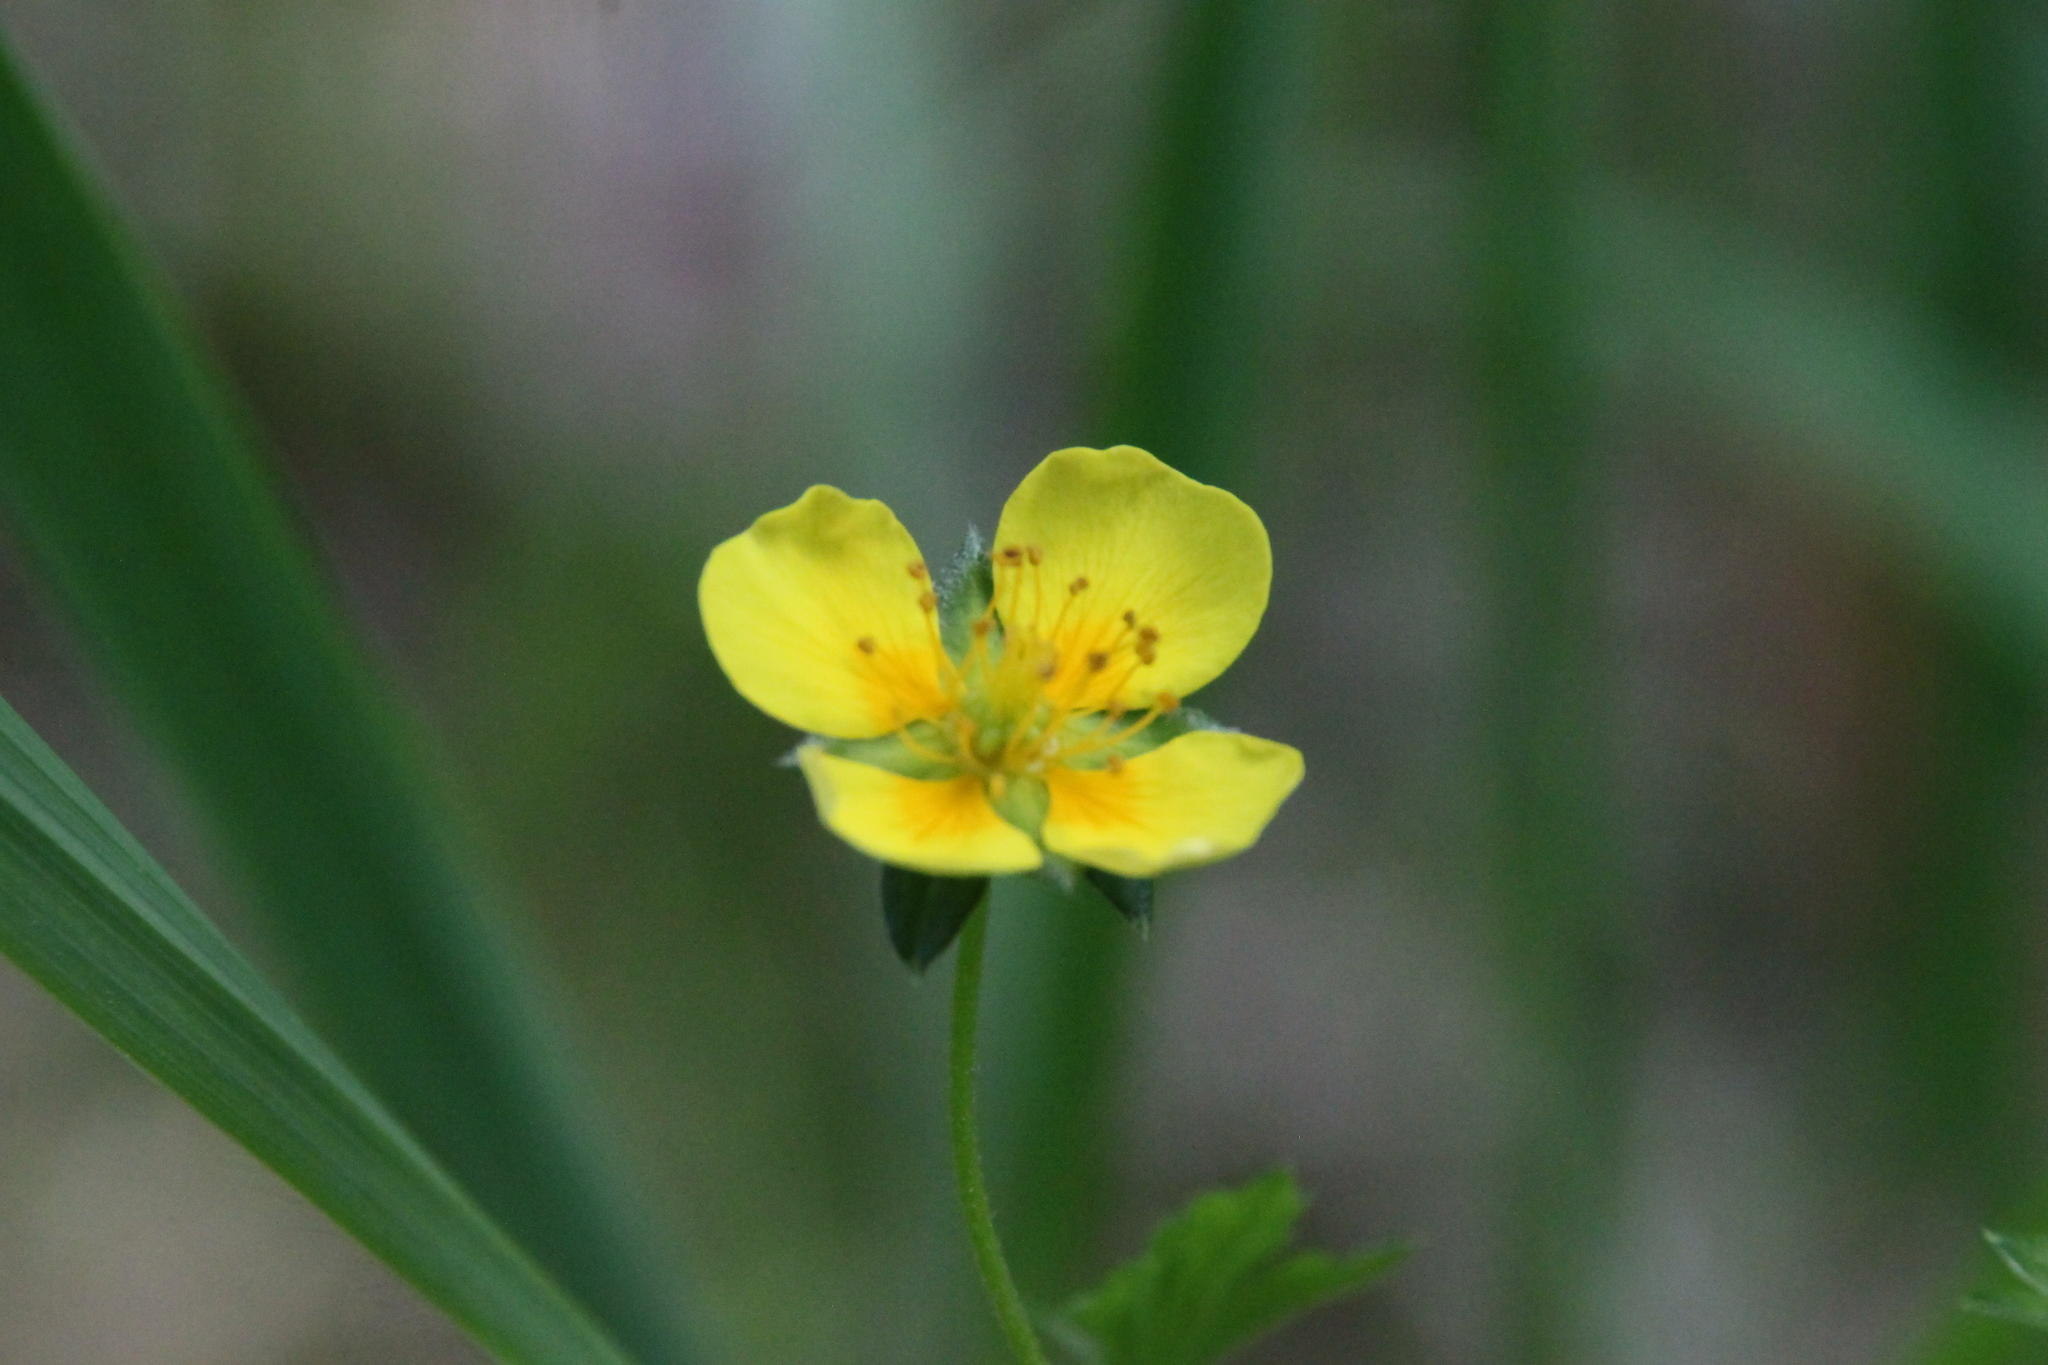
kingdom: Plantae
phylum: Tracheophyta
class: Magnoliopsida
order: Rosales
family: Rosaceae
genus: Potentilla
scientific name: Potentilla erecta
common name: Tormentil
